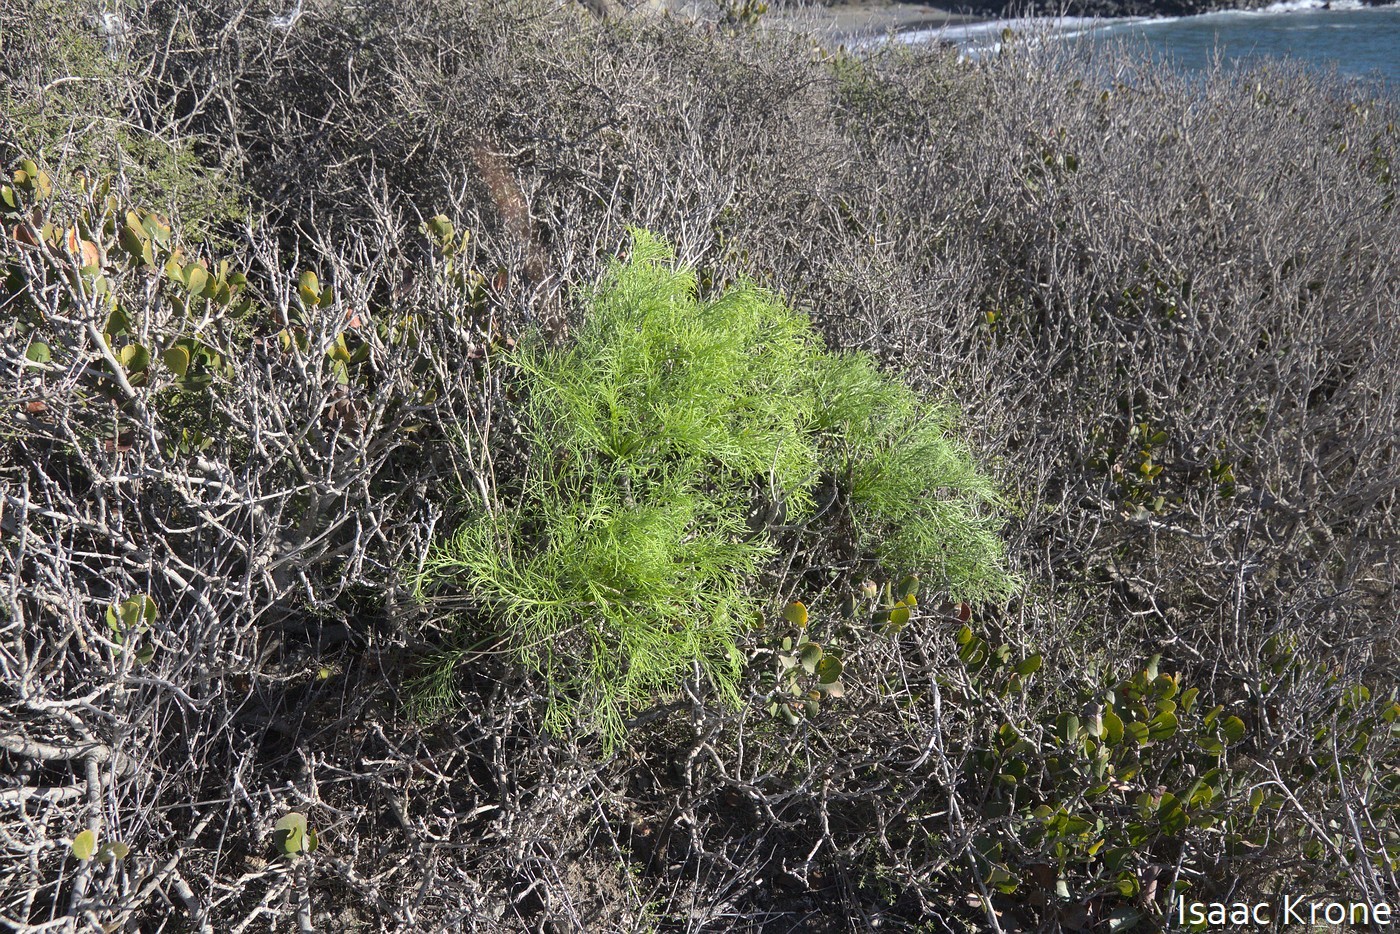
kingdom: Plantae
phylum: Tracheophyta
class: Magnoliopsida
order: Asterales
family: Asteraceae
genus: Coreopsis
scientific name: Coreopsis gigantea
